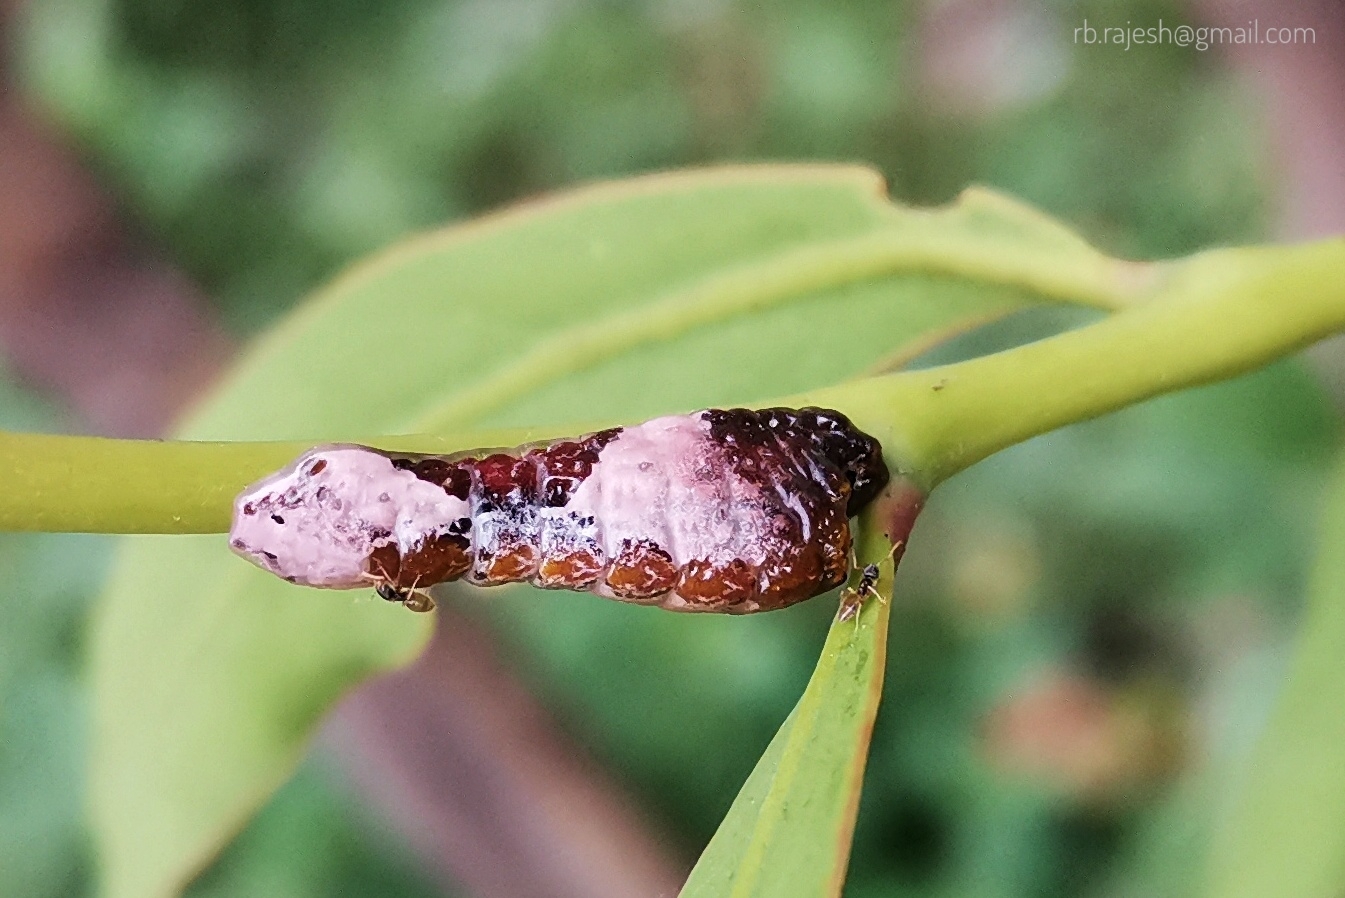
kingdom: Animalia
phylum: Arthropoda
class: Insecta
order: Lepidoptera
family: Lycaenidae
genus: Tajuria
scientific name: Tajuria cippus
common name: Peacock royal
